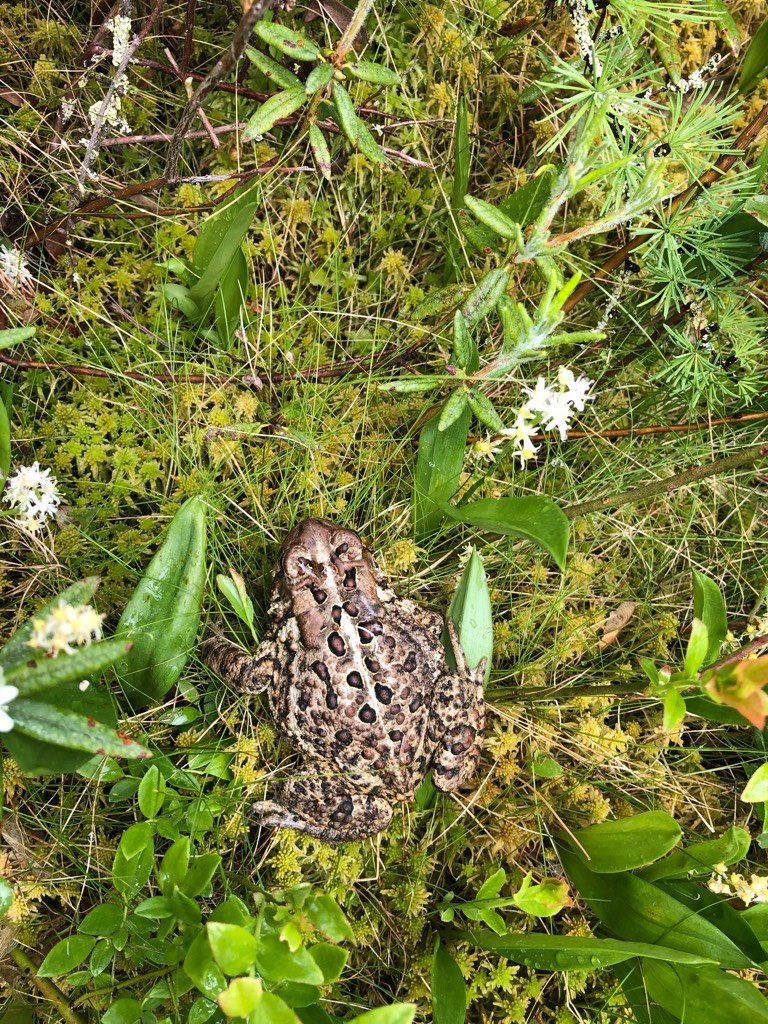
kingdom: Animalia
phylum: Chordata
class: Amphibia
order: Anura
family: Bufonidae
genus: Anaxyrus
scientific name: Anaxyrus americanus
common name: American toad
